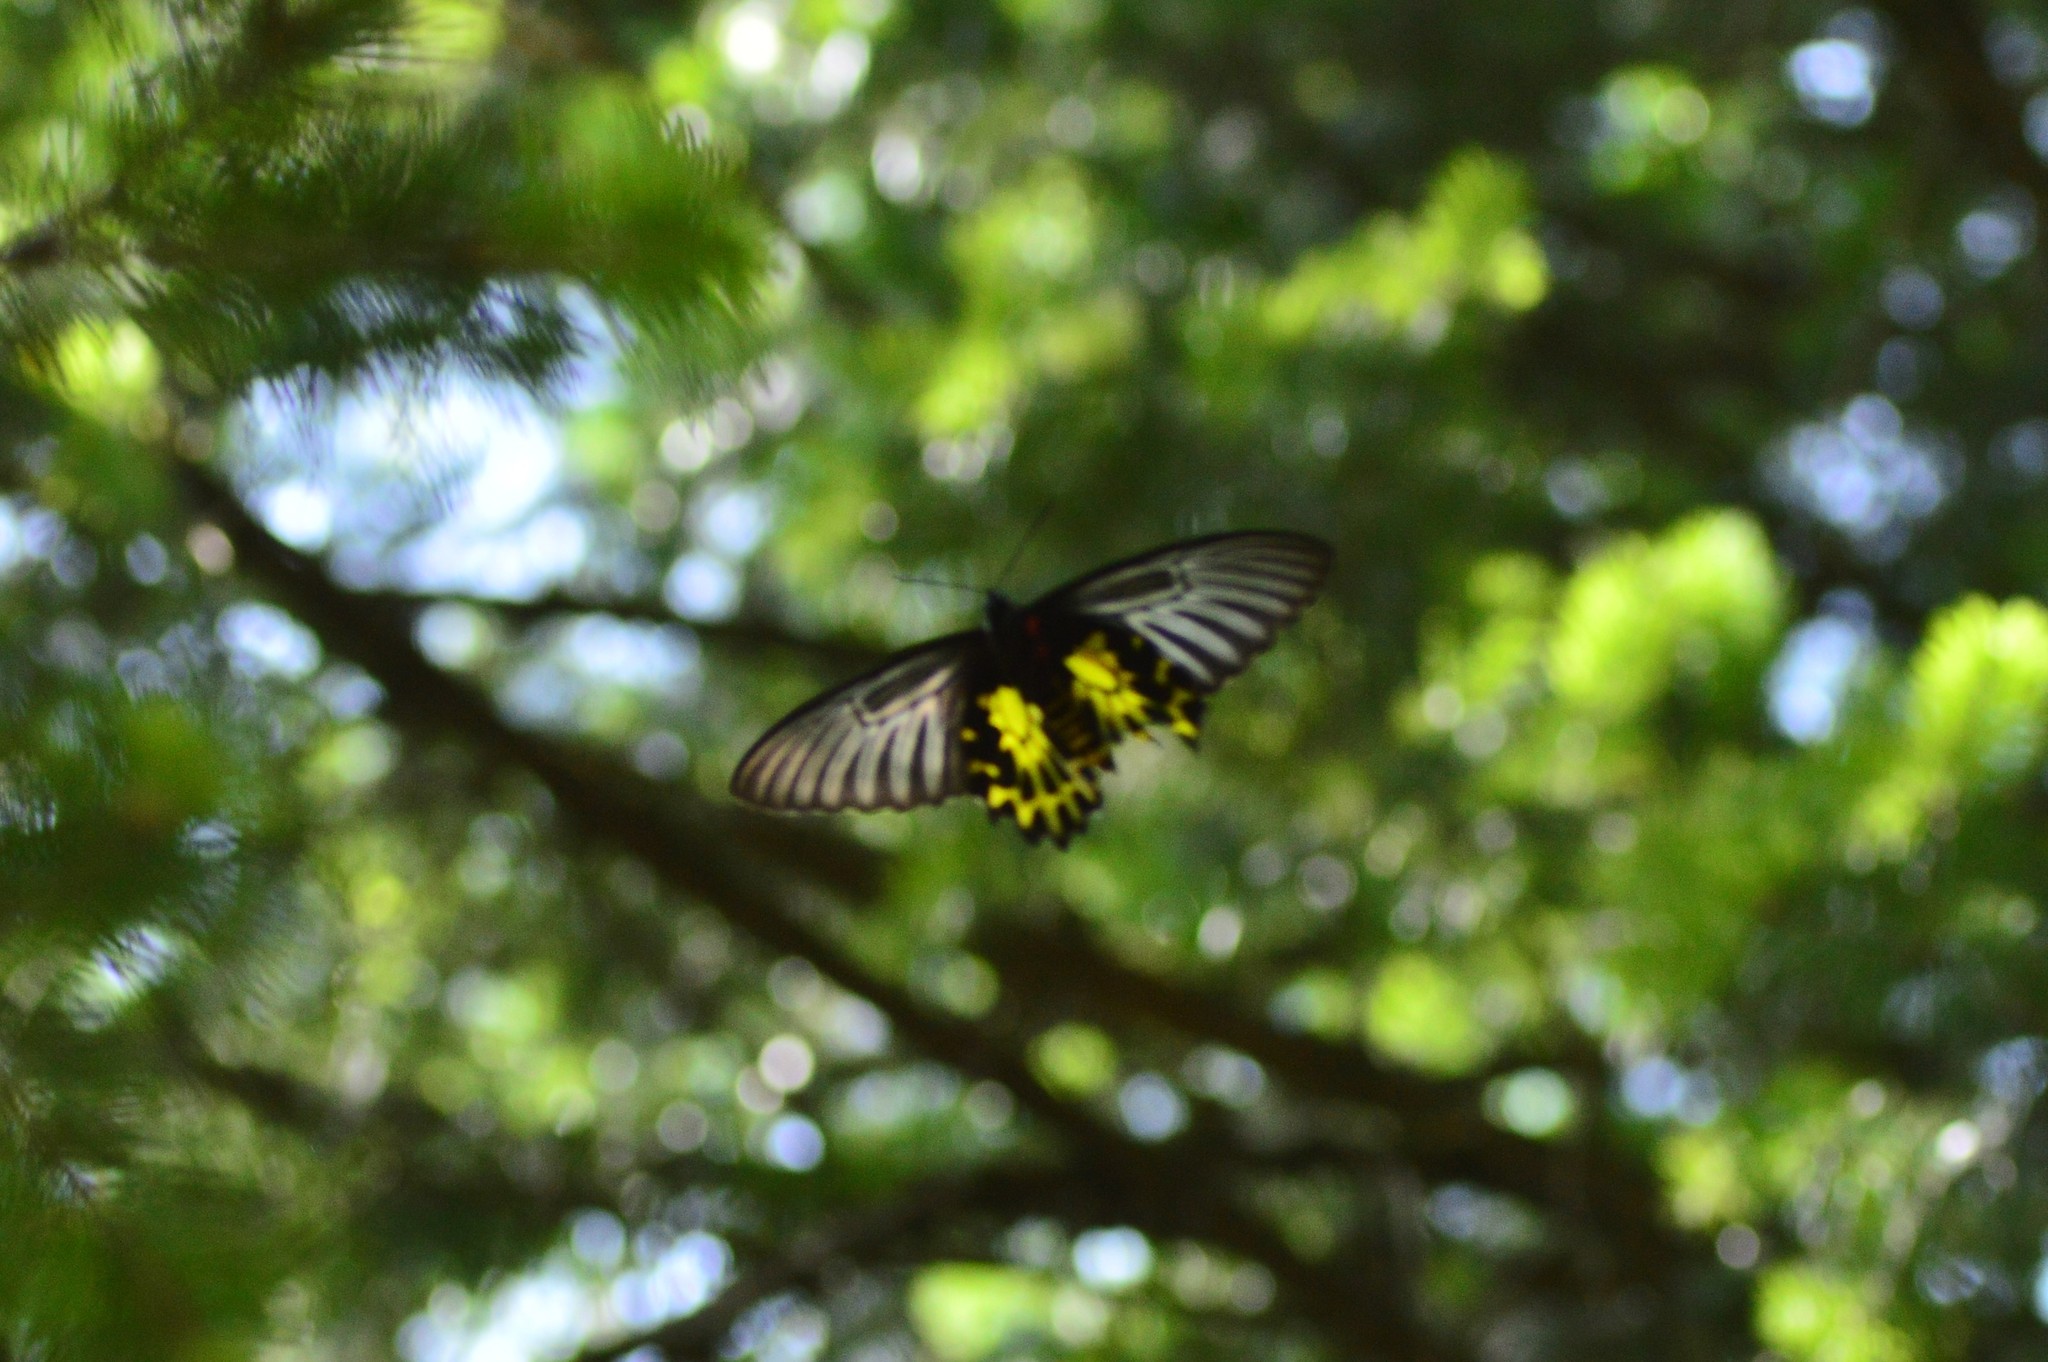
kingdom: Animalia
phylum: Arthropoda
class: Insecta
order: Lepidoptera
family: Papilionidae
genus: Troides
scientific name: Troides aeacus
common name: Golden birdwing
